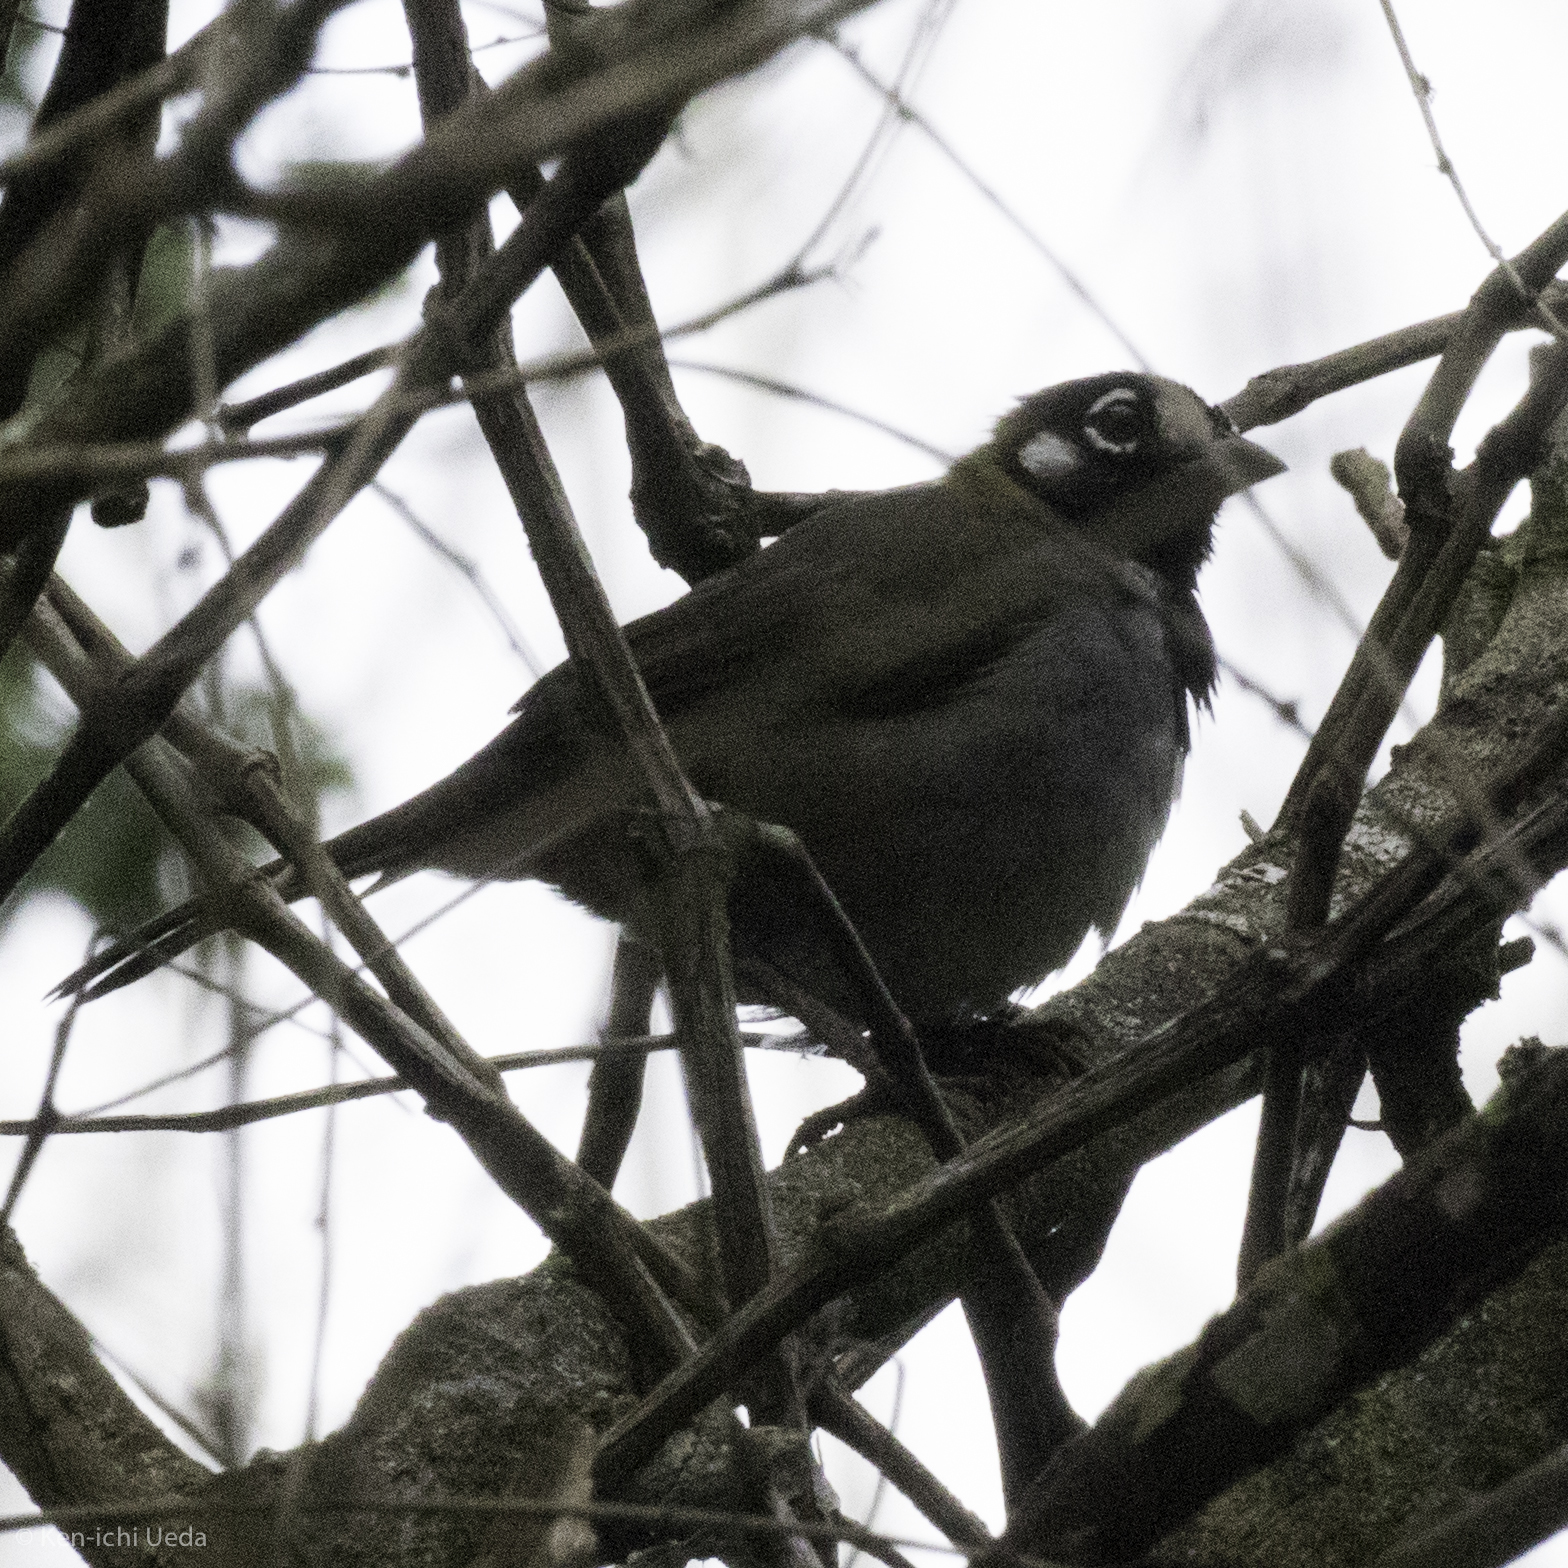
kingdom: Animalia
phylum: Chordata
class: Aves
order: Passeriformes
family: Passerellidae
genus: Melozone
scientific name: Melozone leucotis
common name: White-eared ground-sparrow
